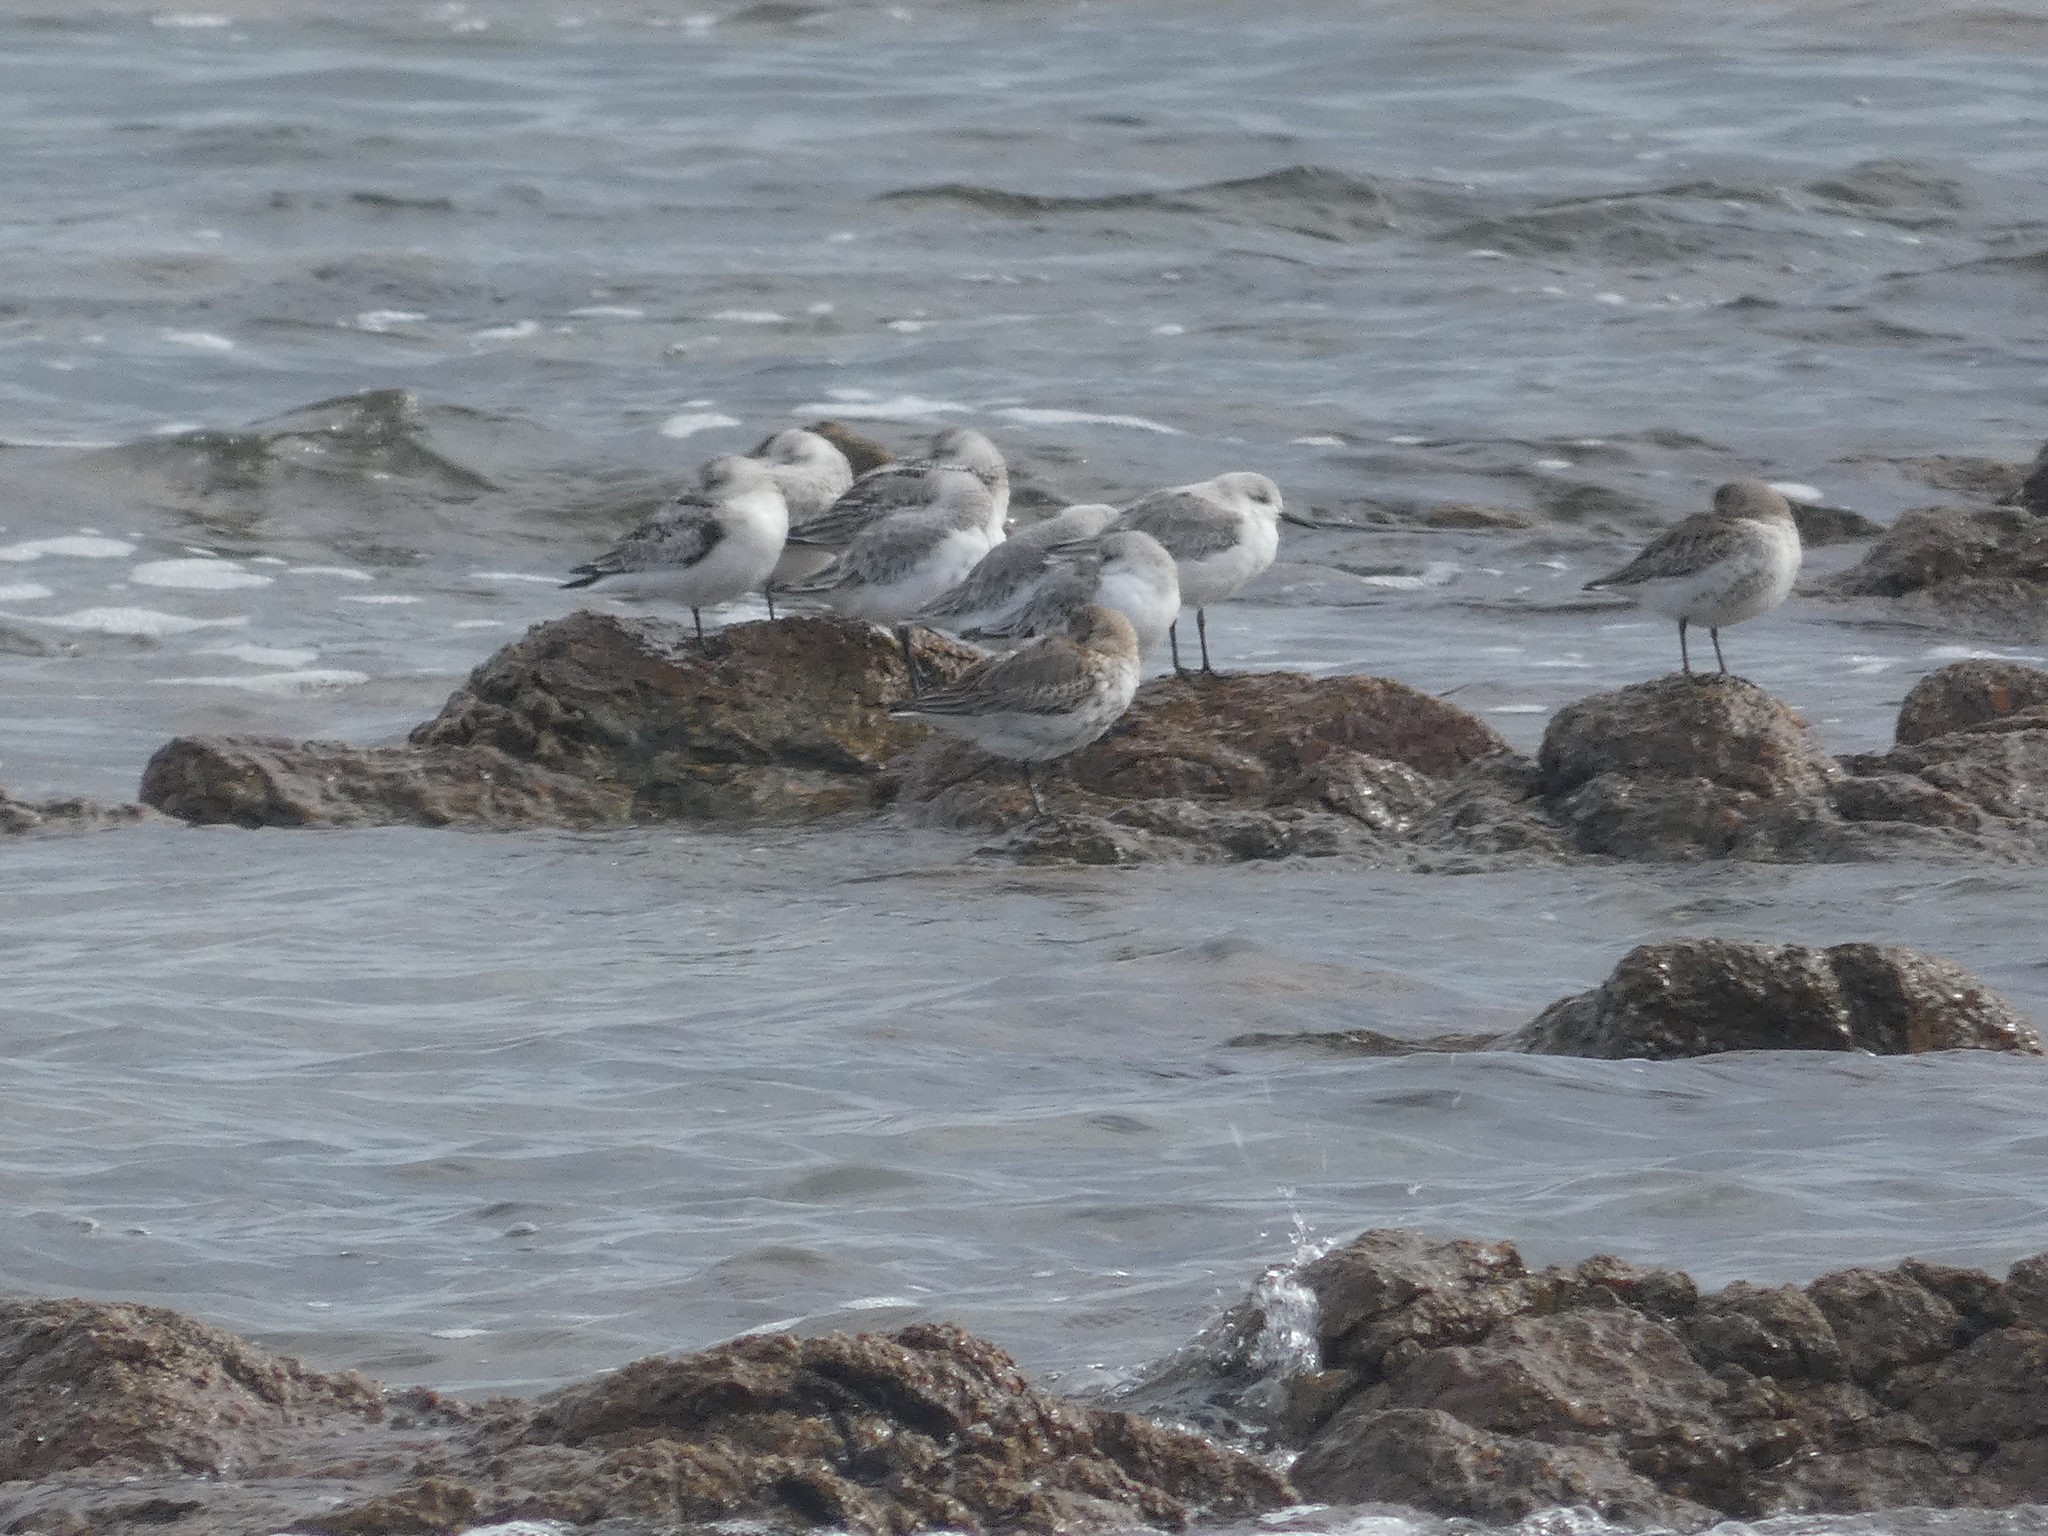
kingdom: Animalia
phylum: Chordata
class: Aves
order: Charadriiformes
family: Scolopacidae
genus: Calidris
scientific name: Calidris alba
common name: Sanderling
